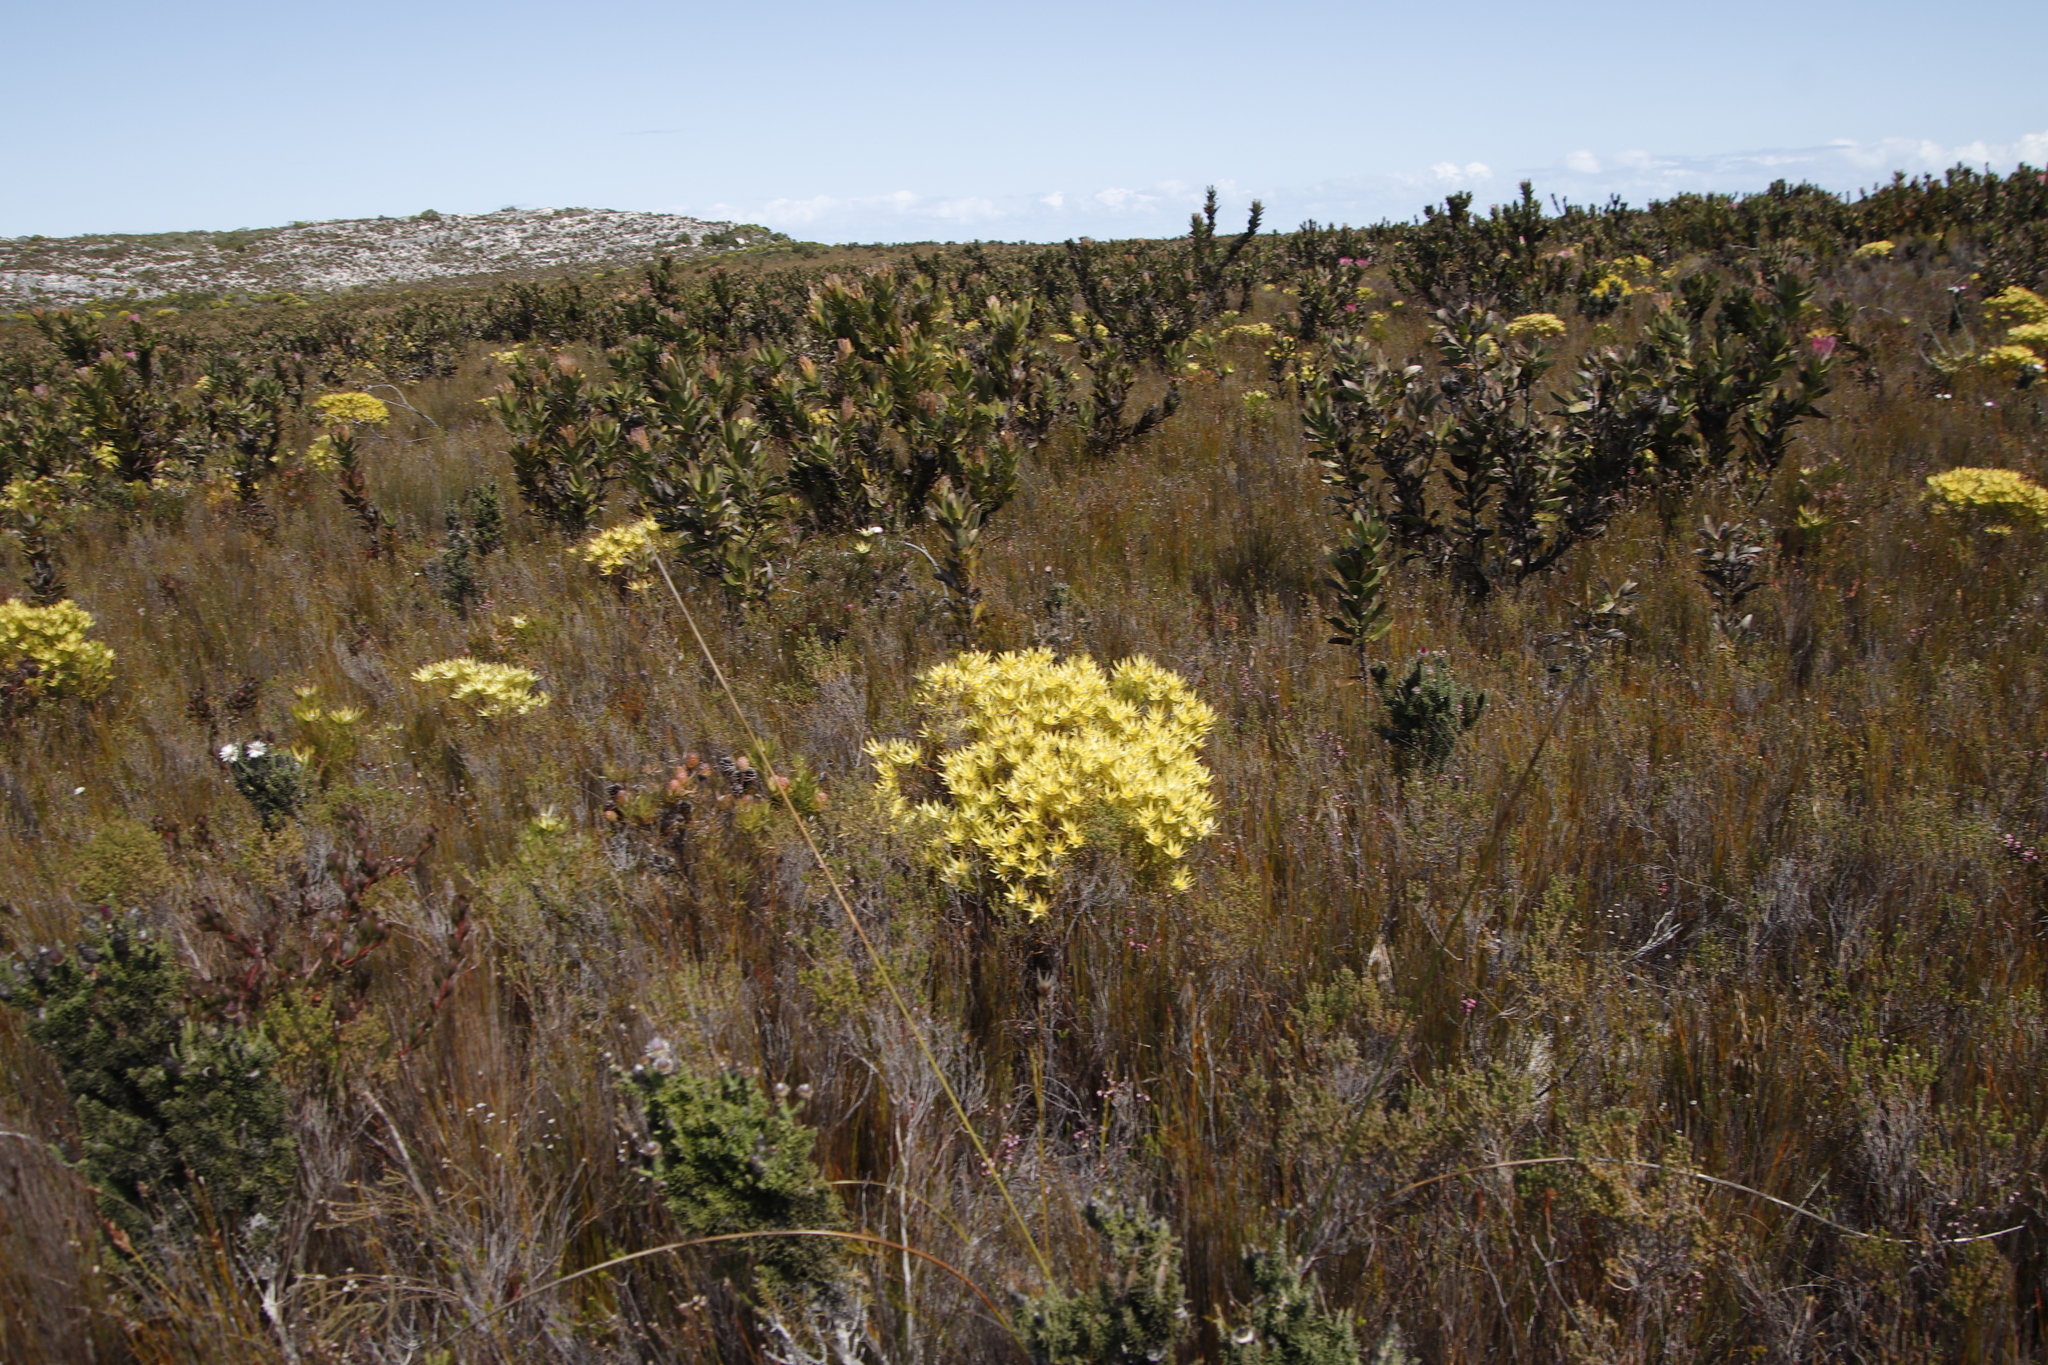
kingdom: Plantae
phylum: Tracheophyta
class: Magnoliopsida
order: Proteales
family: Proteaceae
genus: Leucadendron
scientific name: Leucadendron xanthoconus
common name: Sickle-leaf conebush
